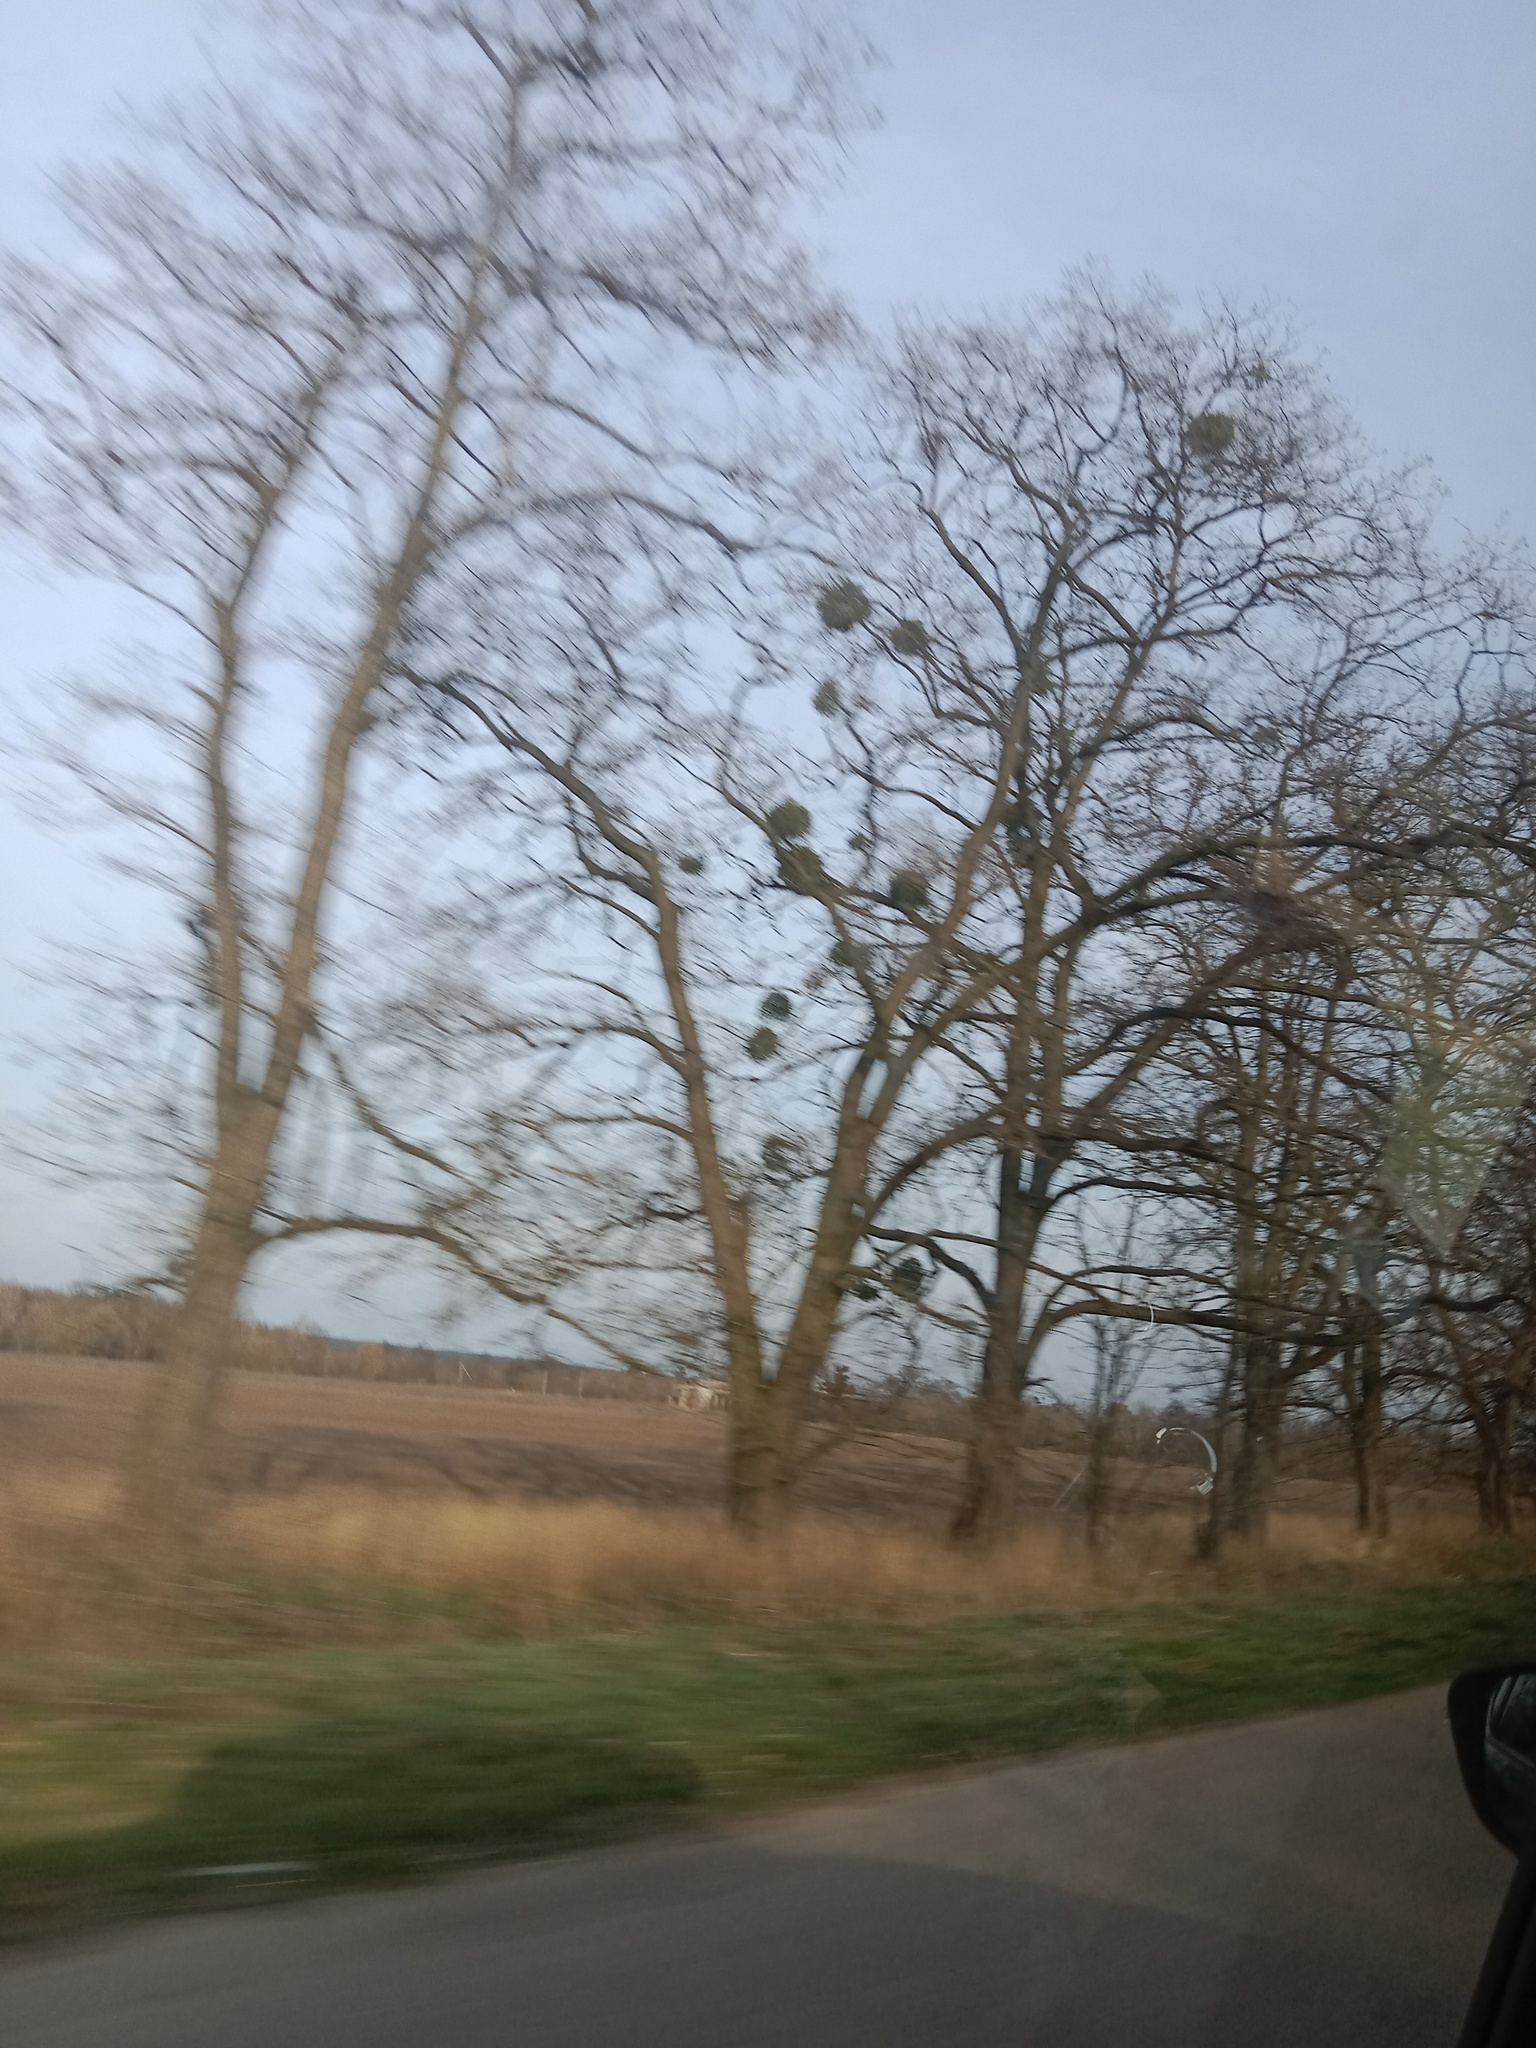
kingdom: Plantae
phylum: Tracheophyta
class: Magnoliopsida
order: Santalales
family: Viscaceae
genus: Viscum
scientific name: Viscum album
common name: Mistletoe
